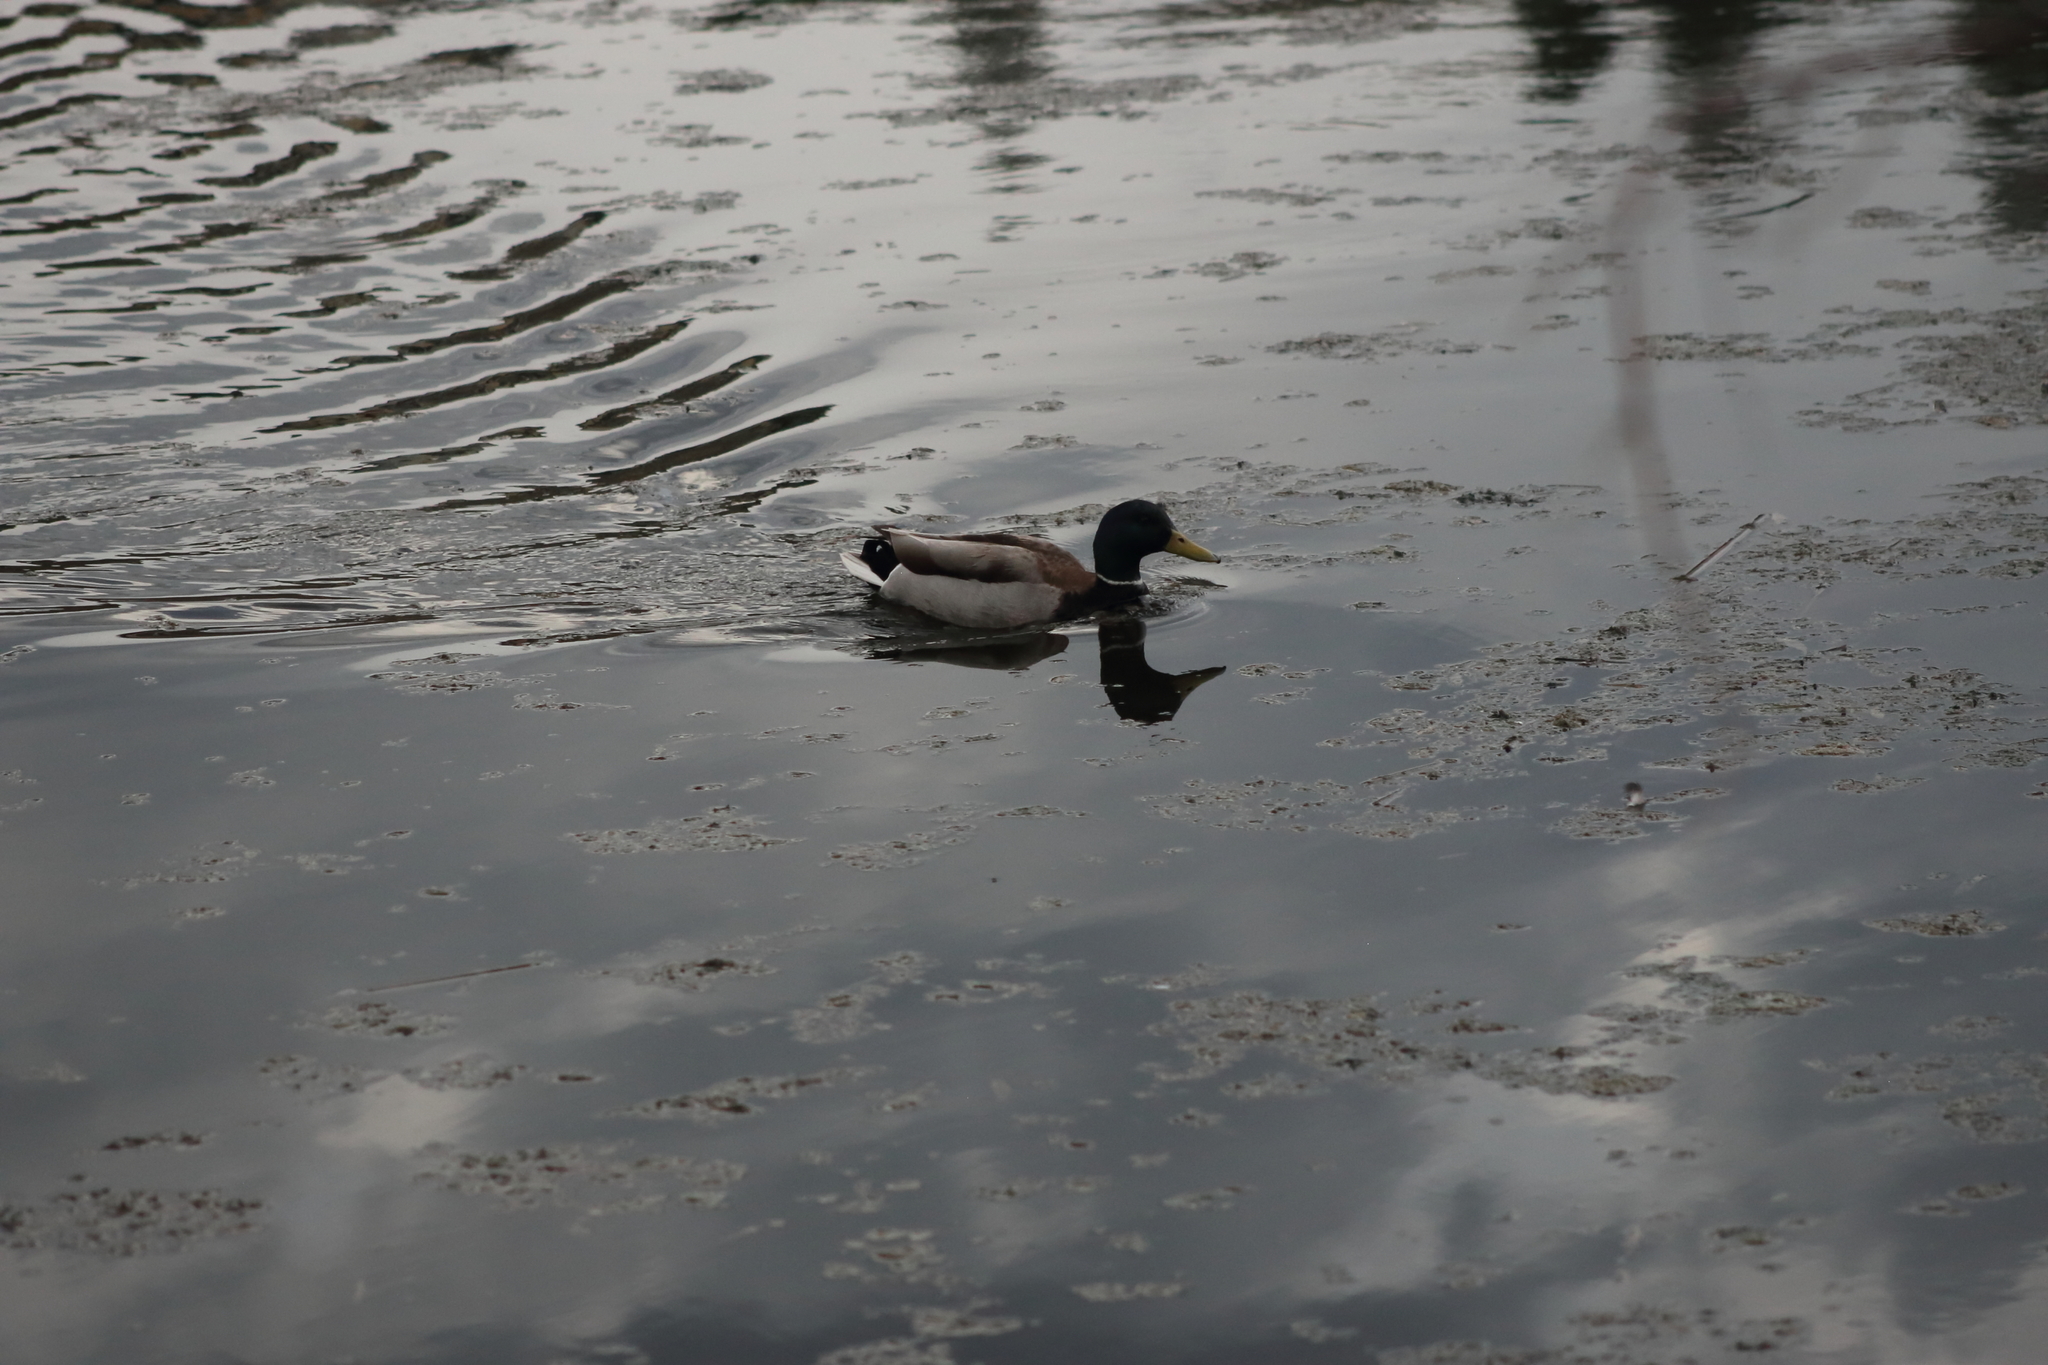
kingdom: Animalia
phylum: Chordata
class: Aves
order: Anseriformes
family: Anatidae
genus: Anas
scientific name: Anas platyrhynchos
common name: Mallard
